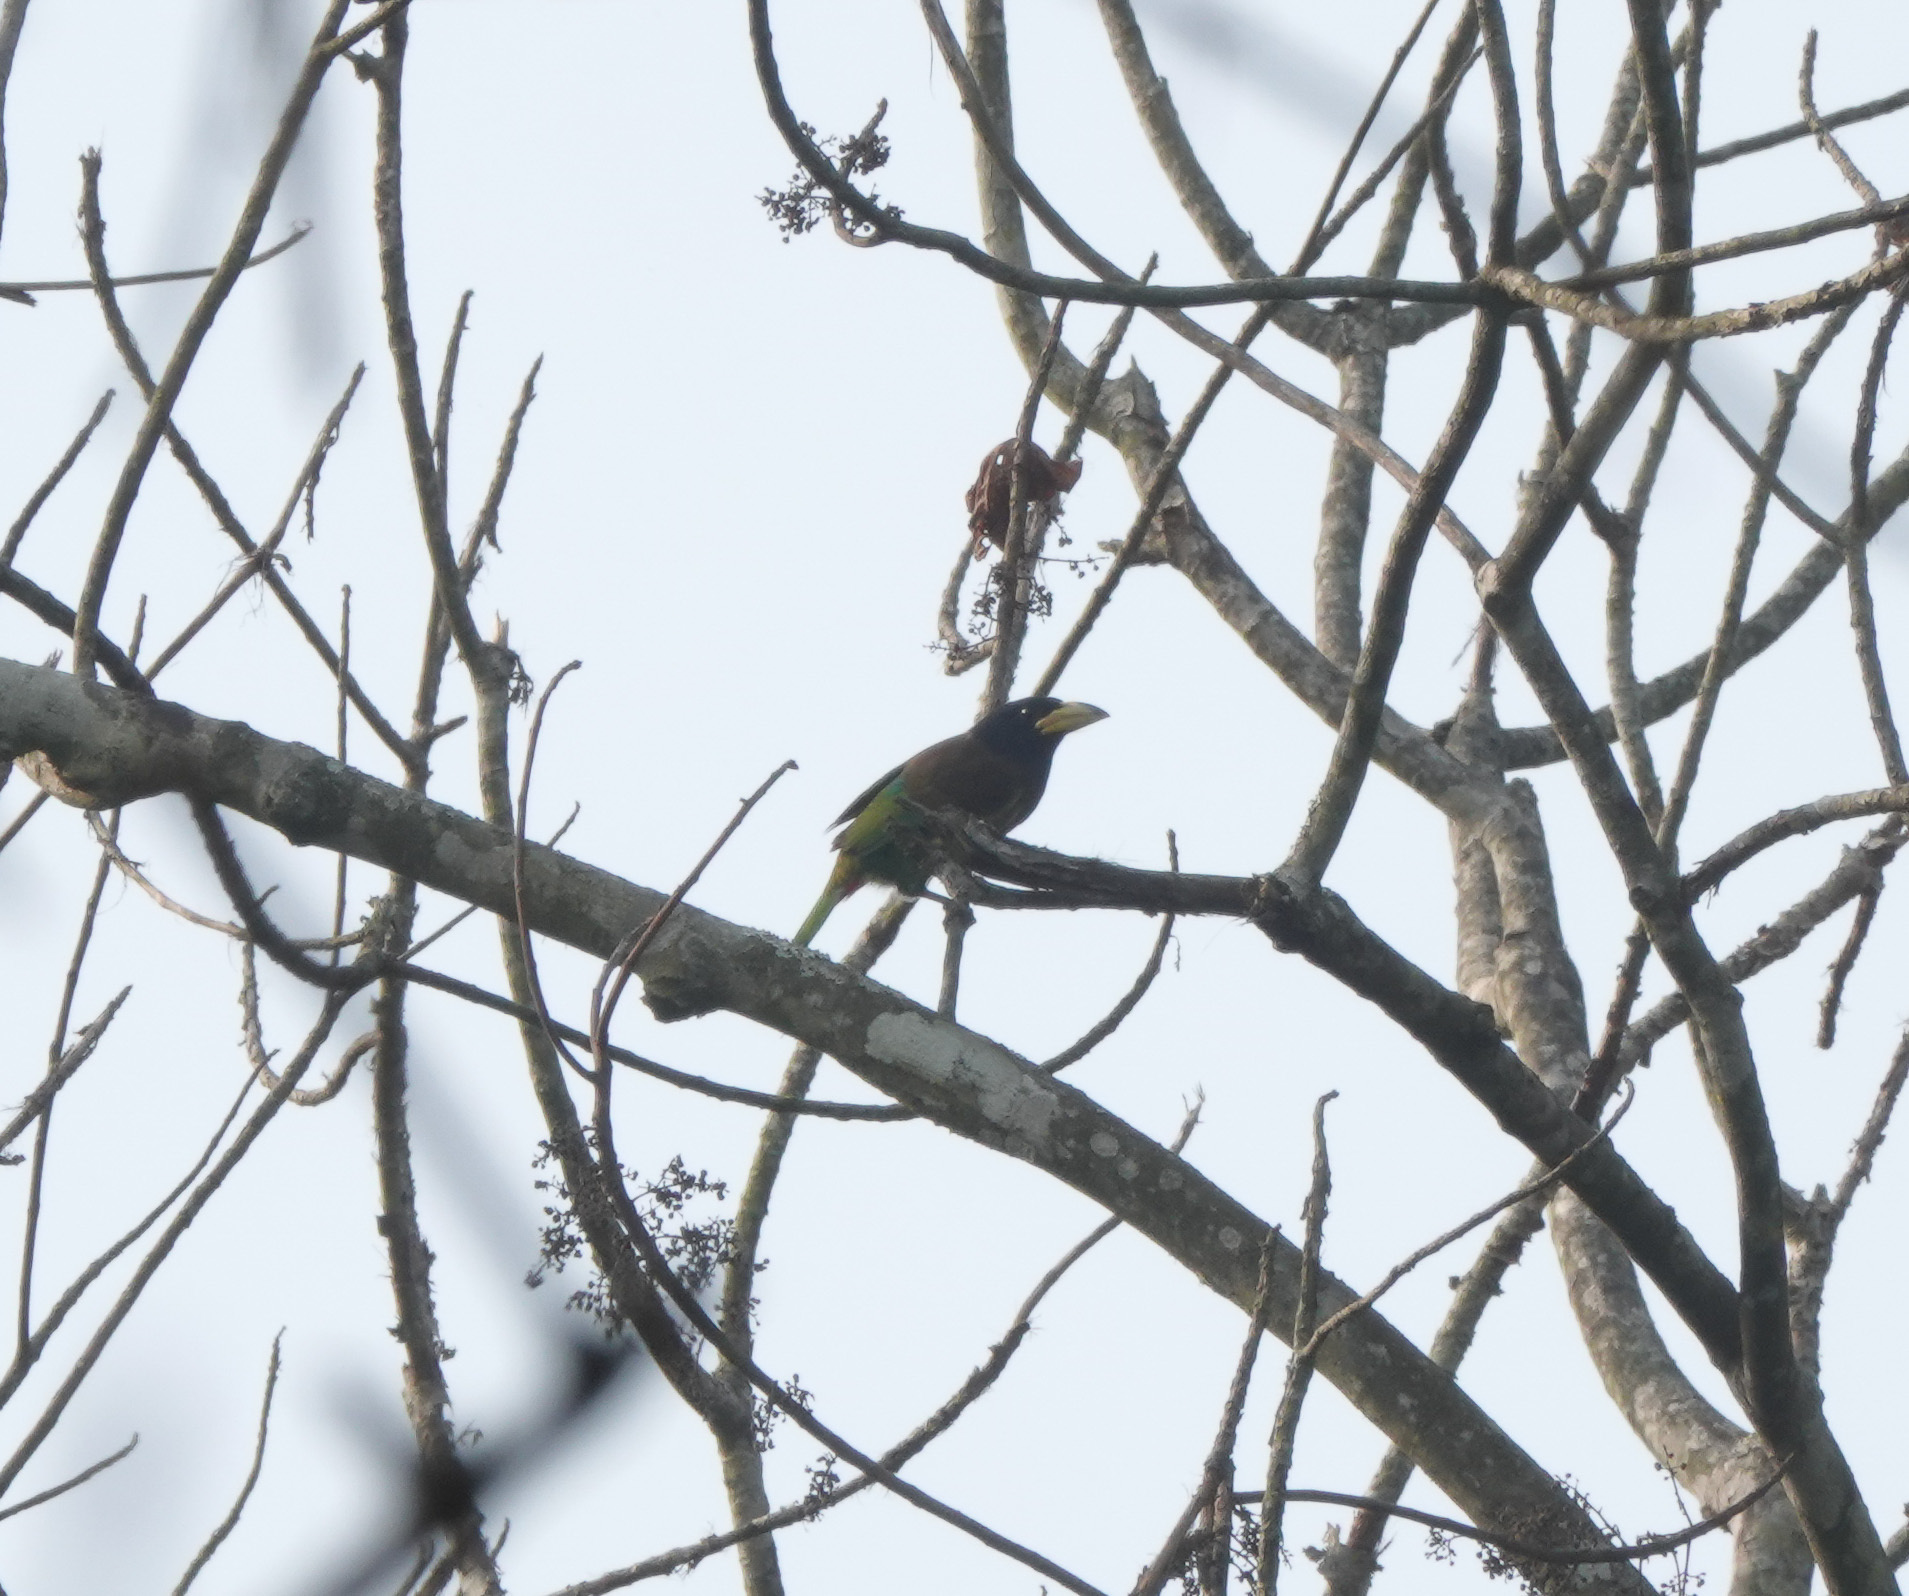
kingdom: Animalia
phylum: Chordata
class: Aves
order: Piciformes
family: Megalaimidae
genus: Psilopogon
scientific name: Psilopogon virens
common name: Great barbet
